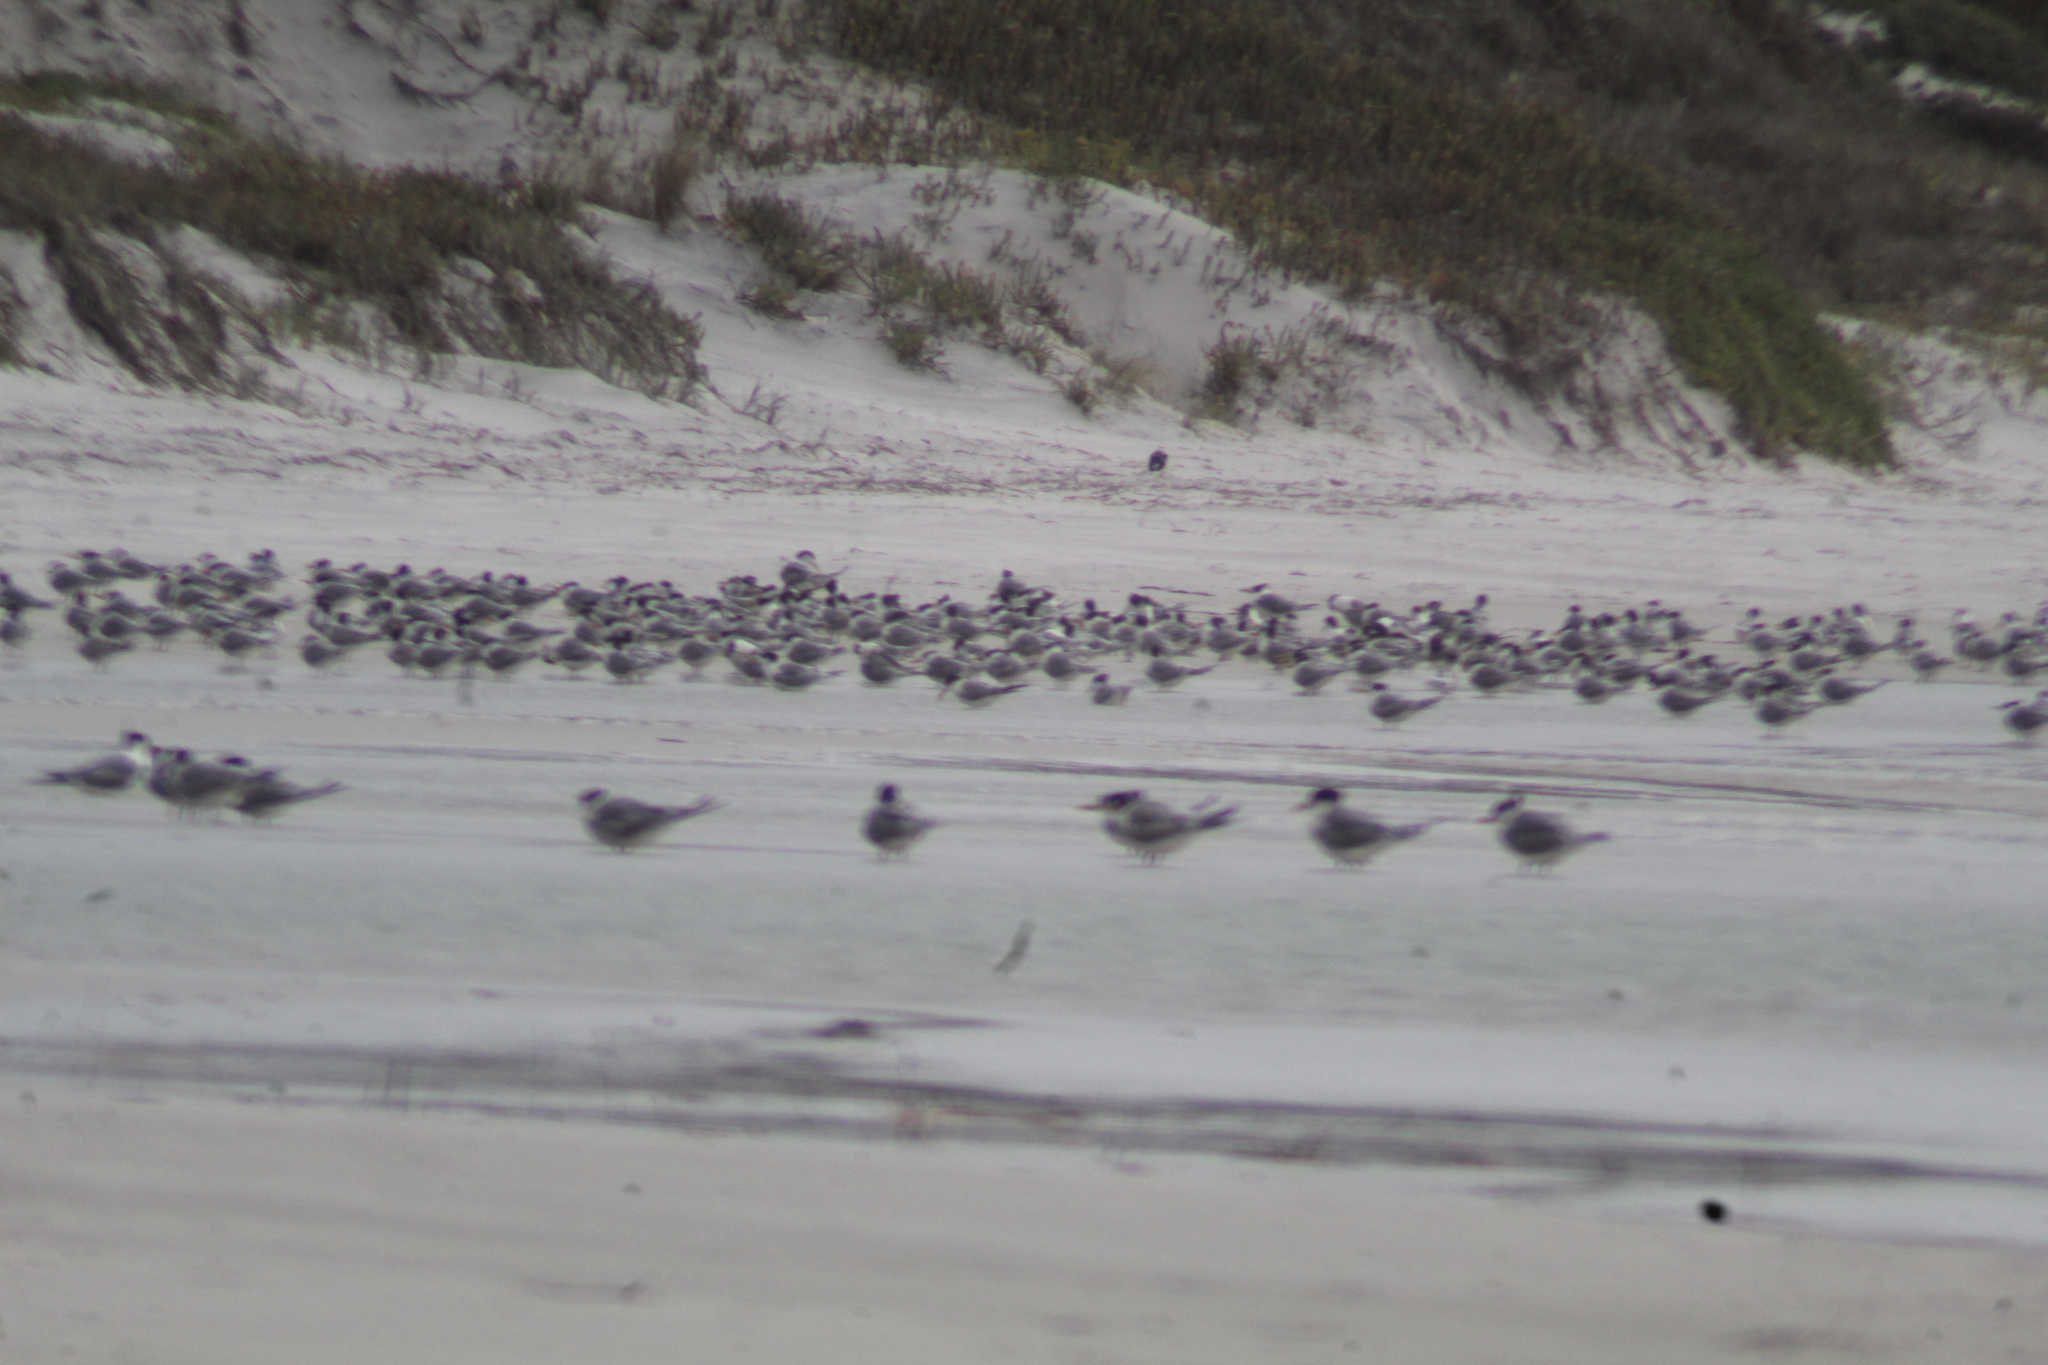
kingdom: Animalia
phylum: Chordata
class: Aves
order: Charadriiformes
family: Laridae
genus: Thalasseus
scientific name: Thalasseus bergii
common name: Greater crested tern
